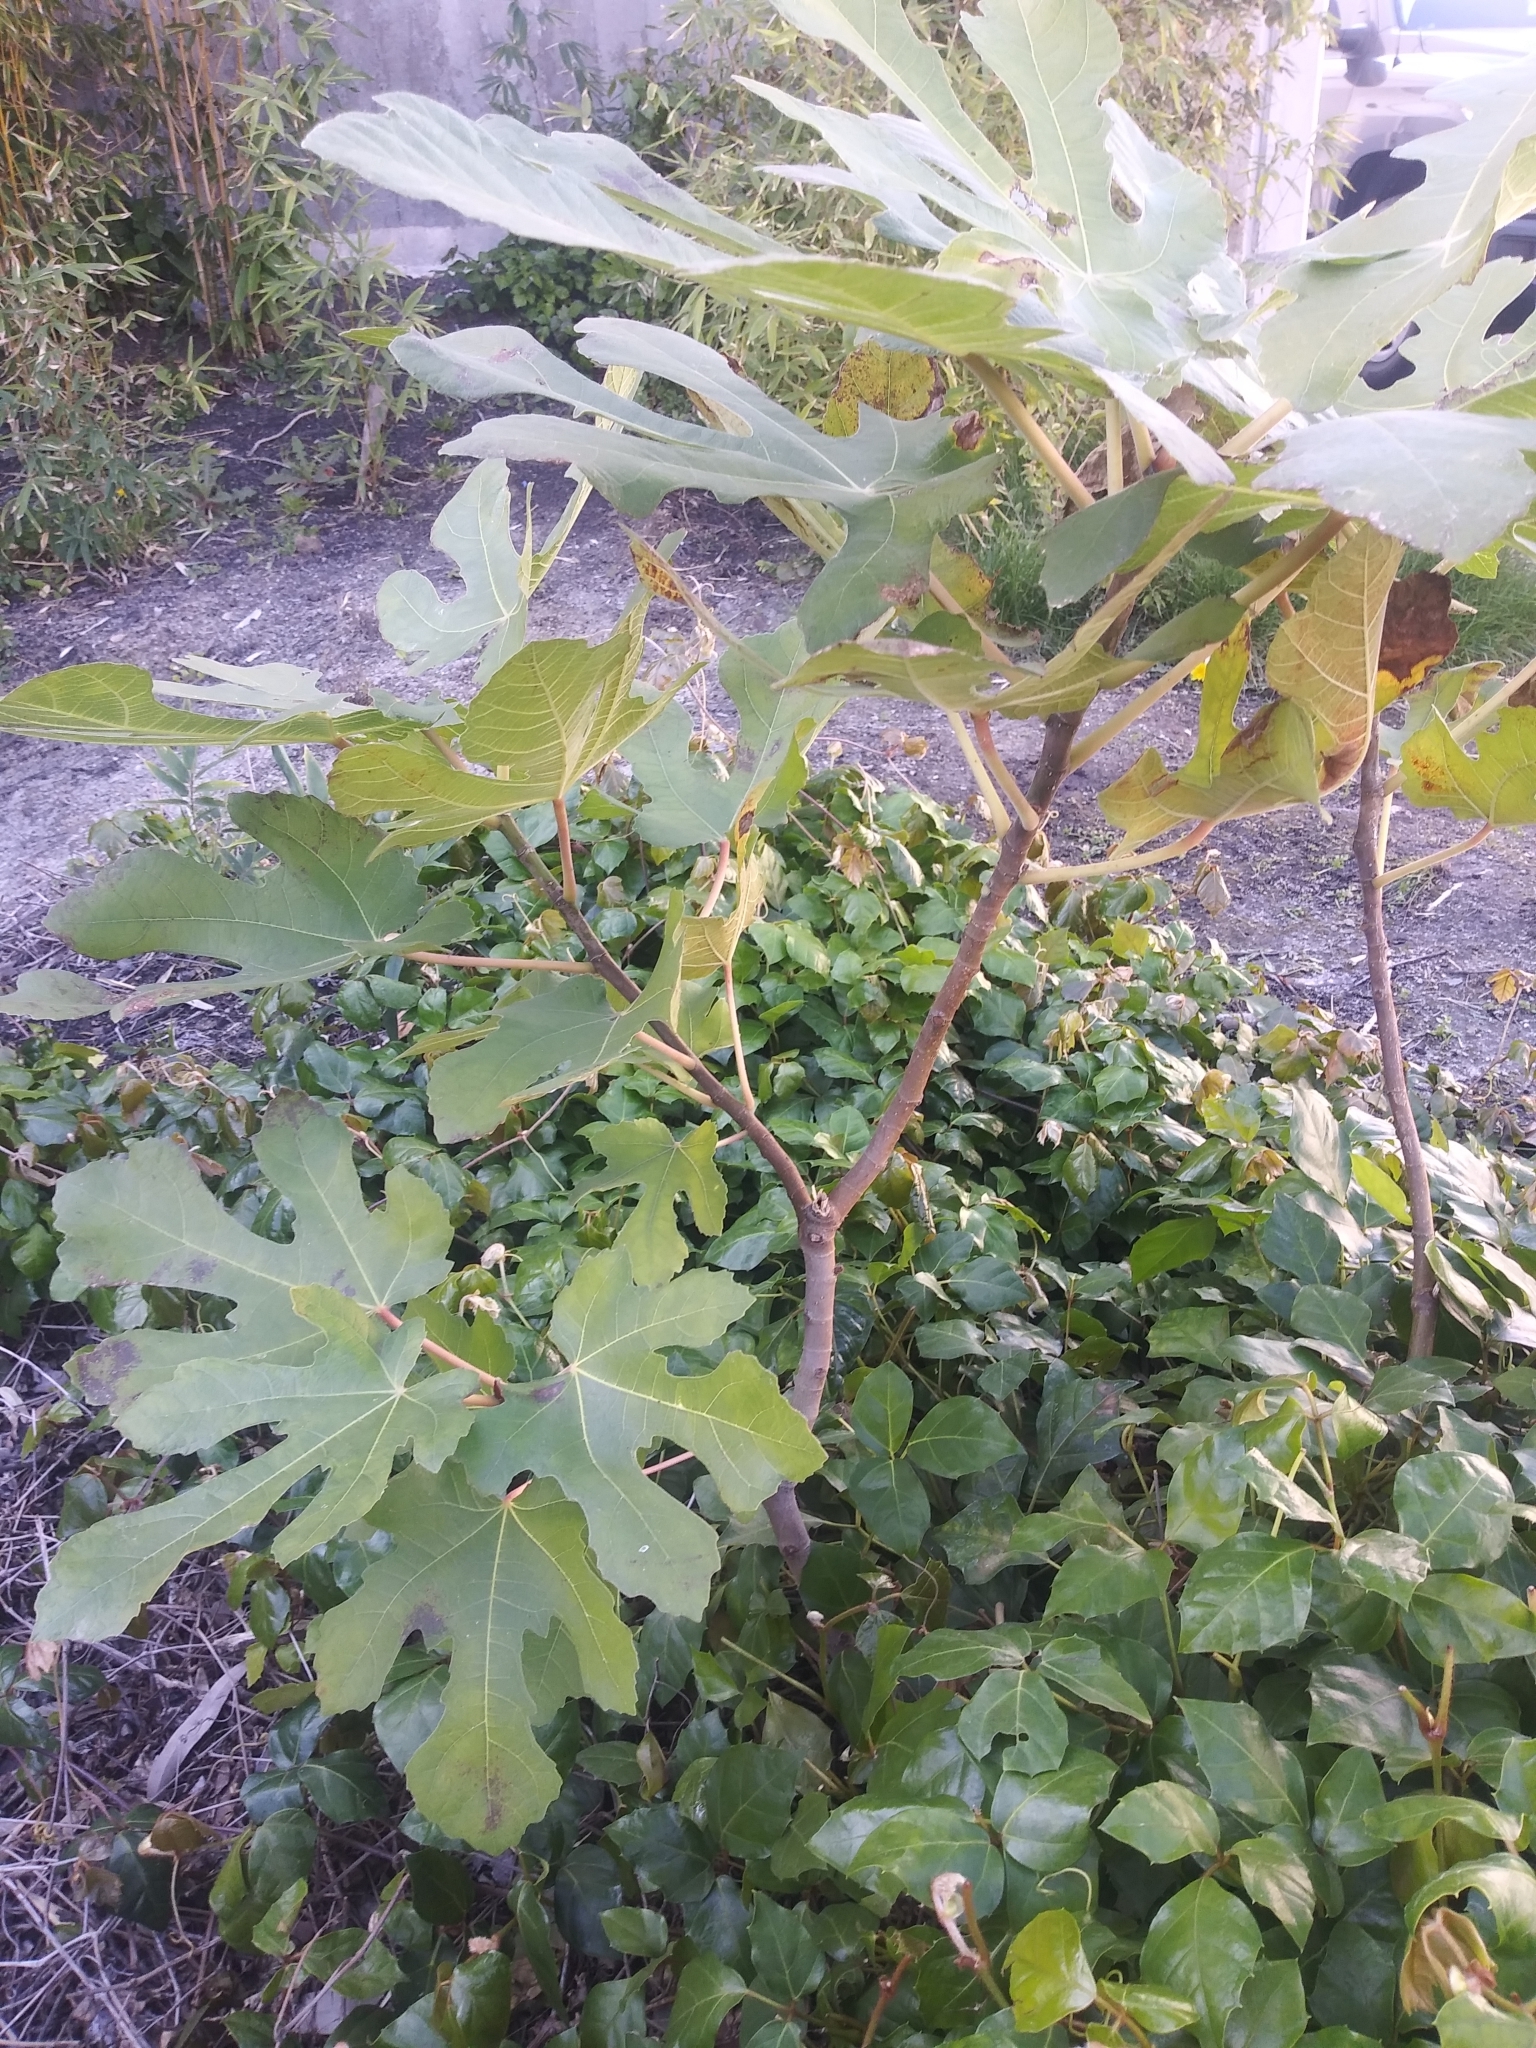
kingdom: Plantae
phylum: Tracheophyta
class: Magnoliopsida
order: Rosales
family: Moraceae
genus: Ficus
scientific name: Ficus carica
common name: Fig
